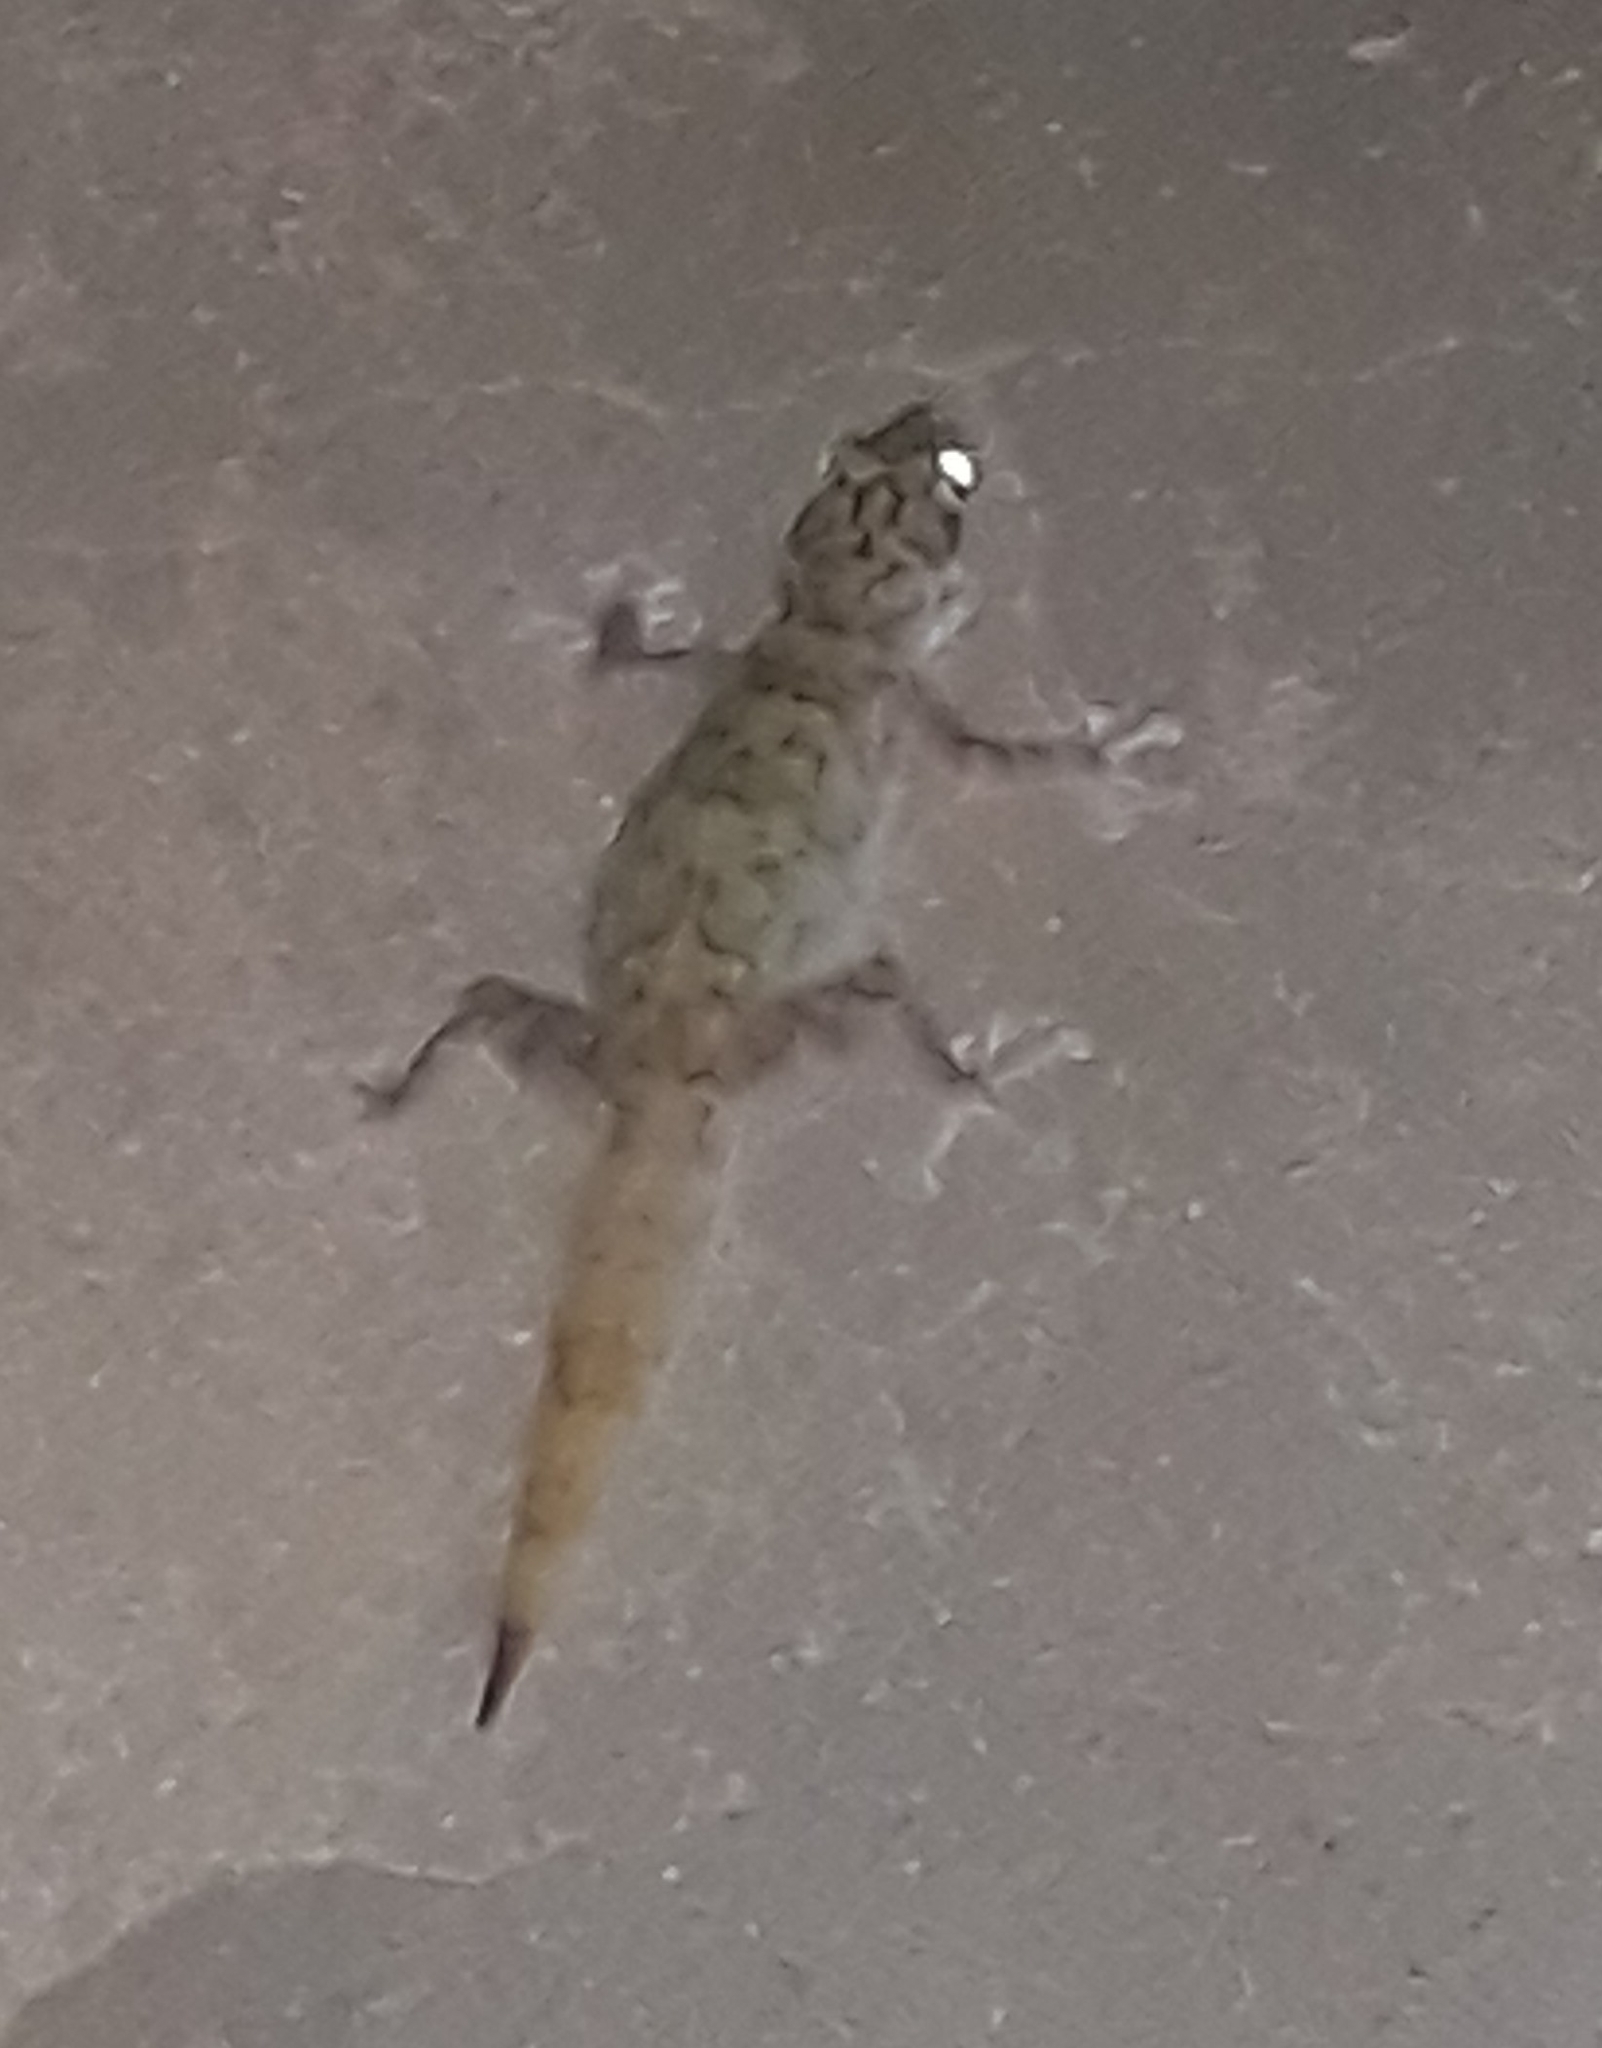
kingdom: Animalia
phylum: Chordata
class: Squamata
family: Phyllodactylidae
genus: Ptyodactylus
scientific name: Ptyodactylus togoensis
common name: Togo fan-footed gecko
